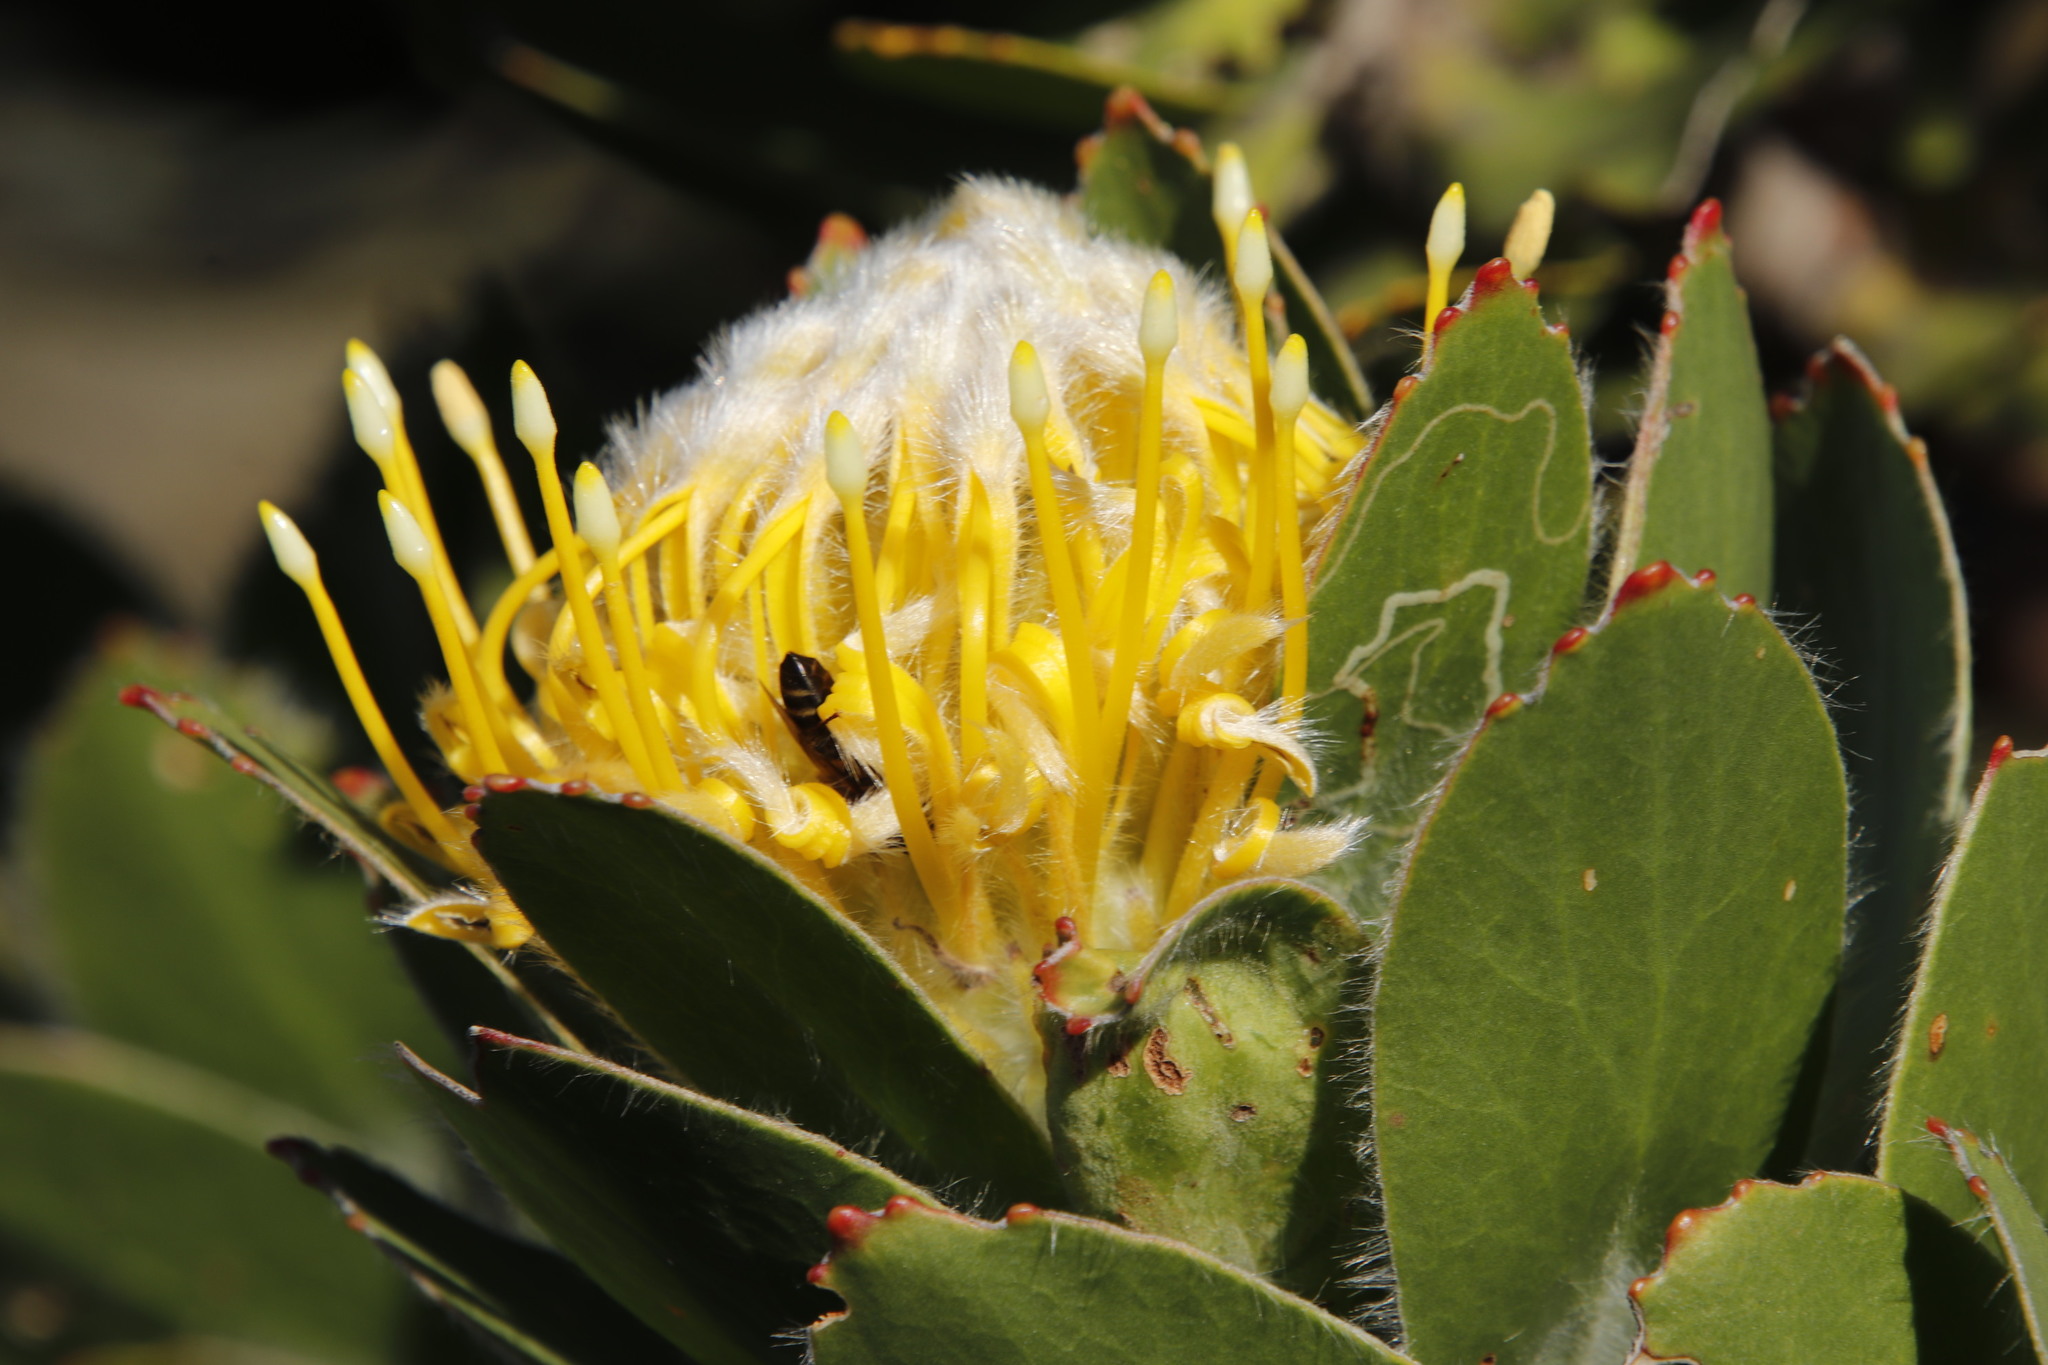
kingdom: Plantae
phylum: Tracheophyta
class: Magnoliopsida
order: Proteales
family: Proteaceae
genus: Leucospermum
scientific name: Leucospermum conocarpodendron
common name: Tree pincushion
